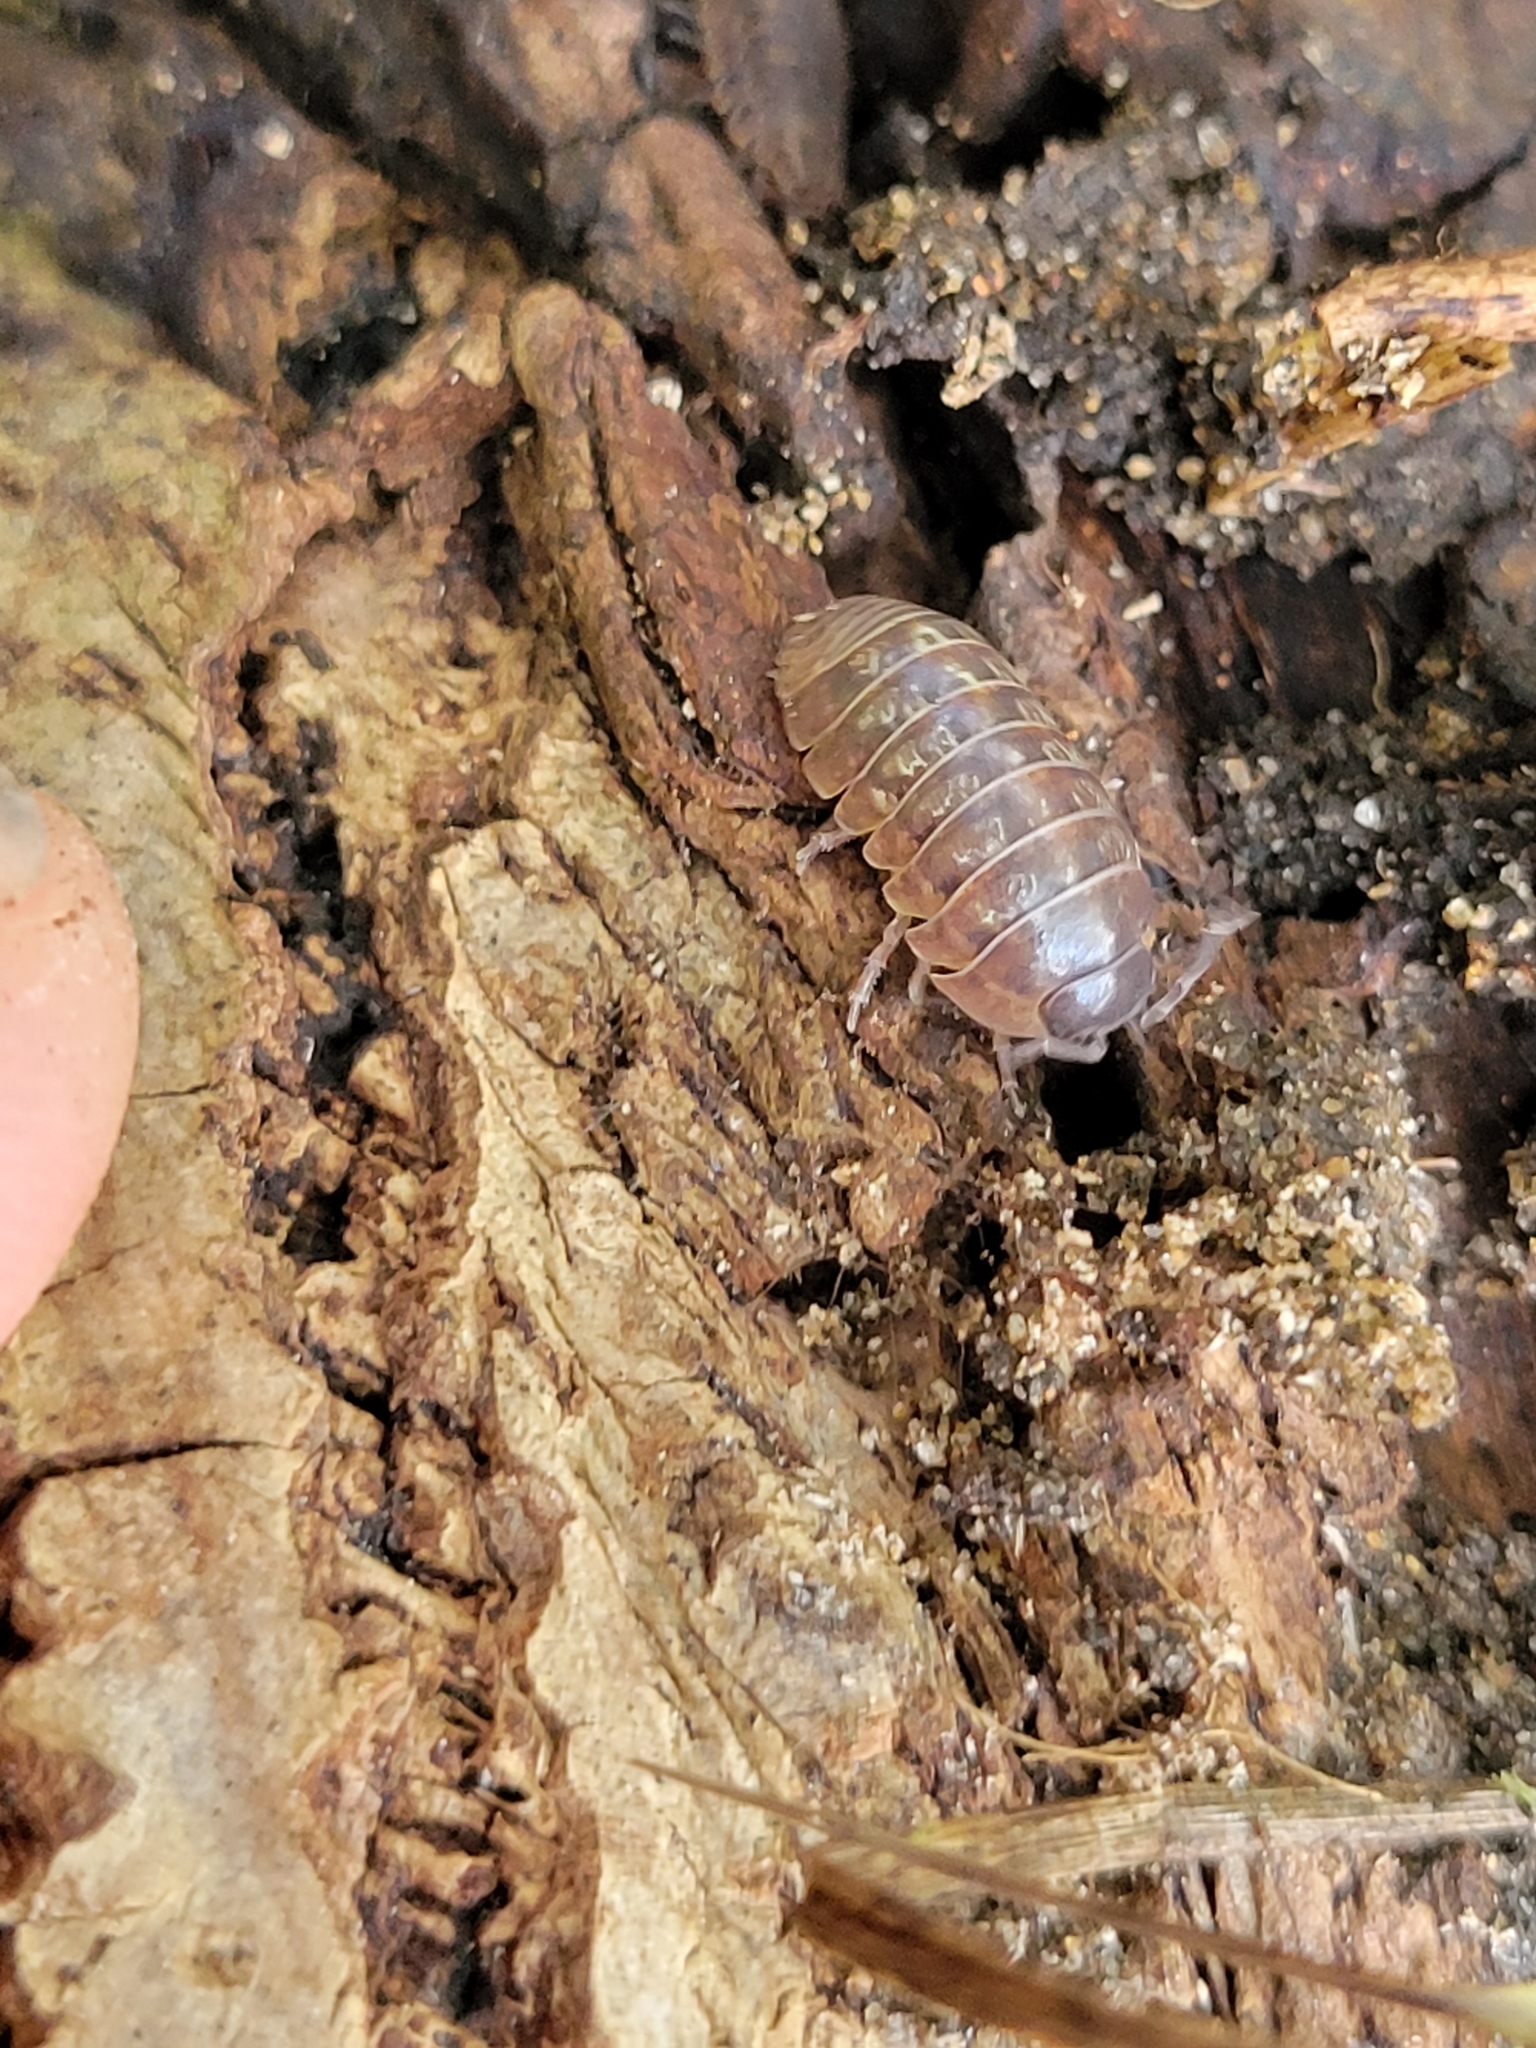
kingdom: Animalia
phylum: Arthropoda
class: Malacostraca
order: Isopoda
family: Armadillidiidae
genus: Armadillidium
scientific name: Armadillidium vulgare
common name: Common pill woodlouse
